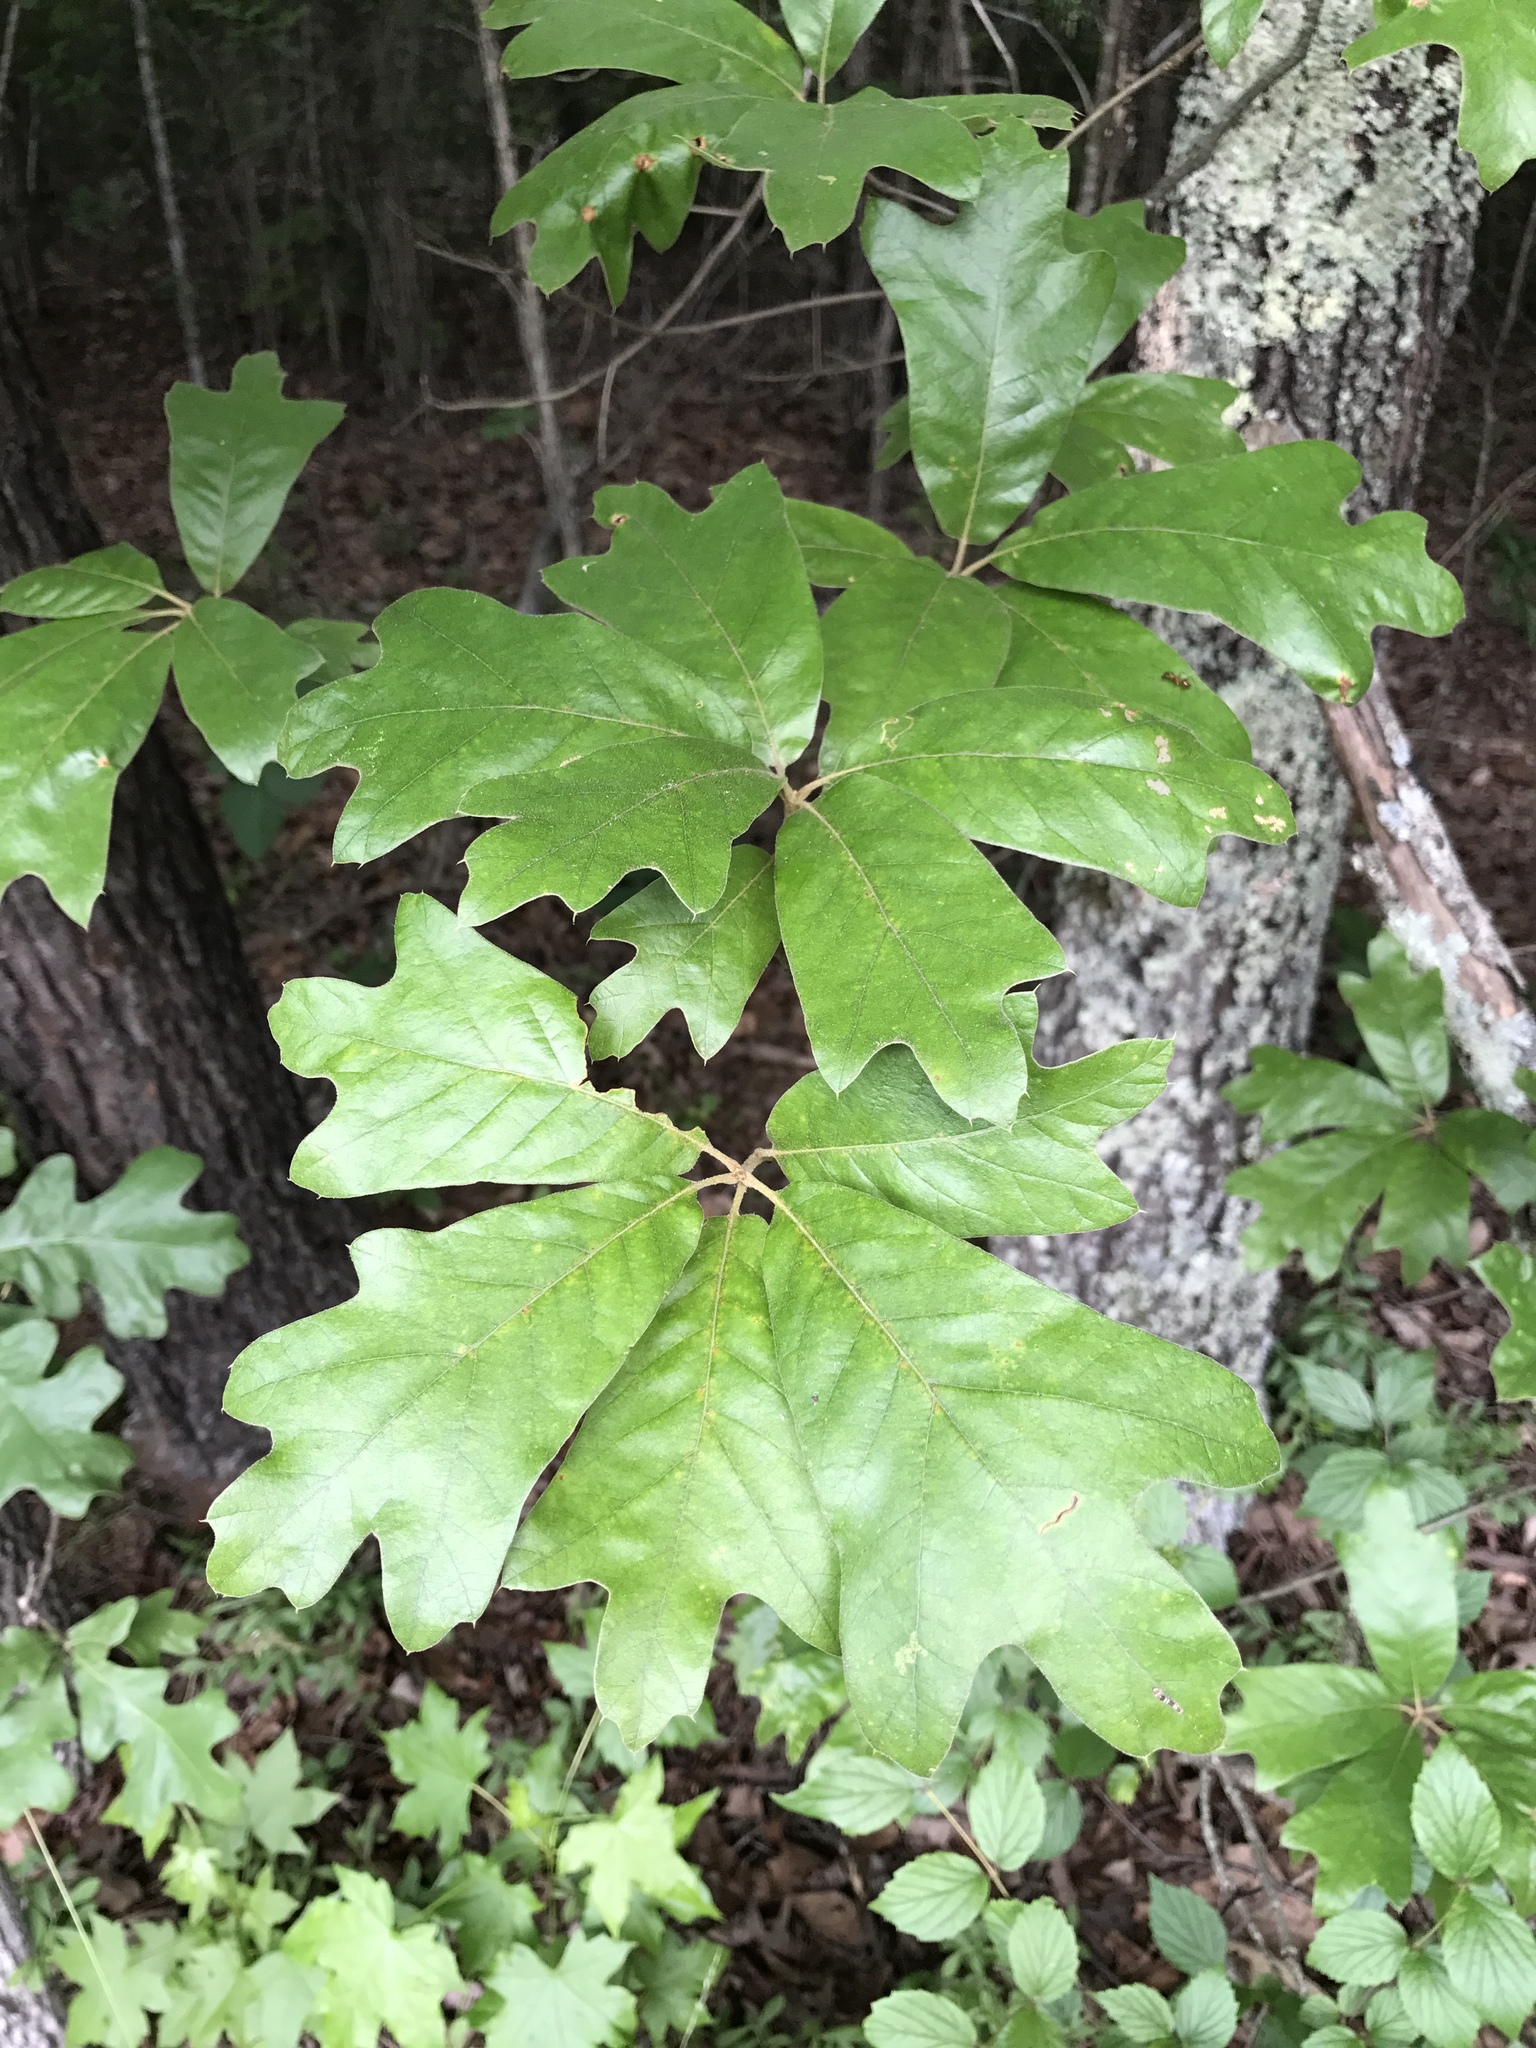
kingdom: Plantae
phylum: Tracheophyta
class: Magnoliopsida
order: Fagales
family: Fagaceae
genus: Quercus
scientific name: Quercus falcata
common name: Southern red oak
